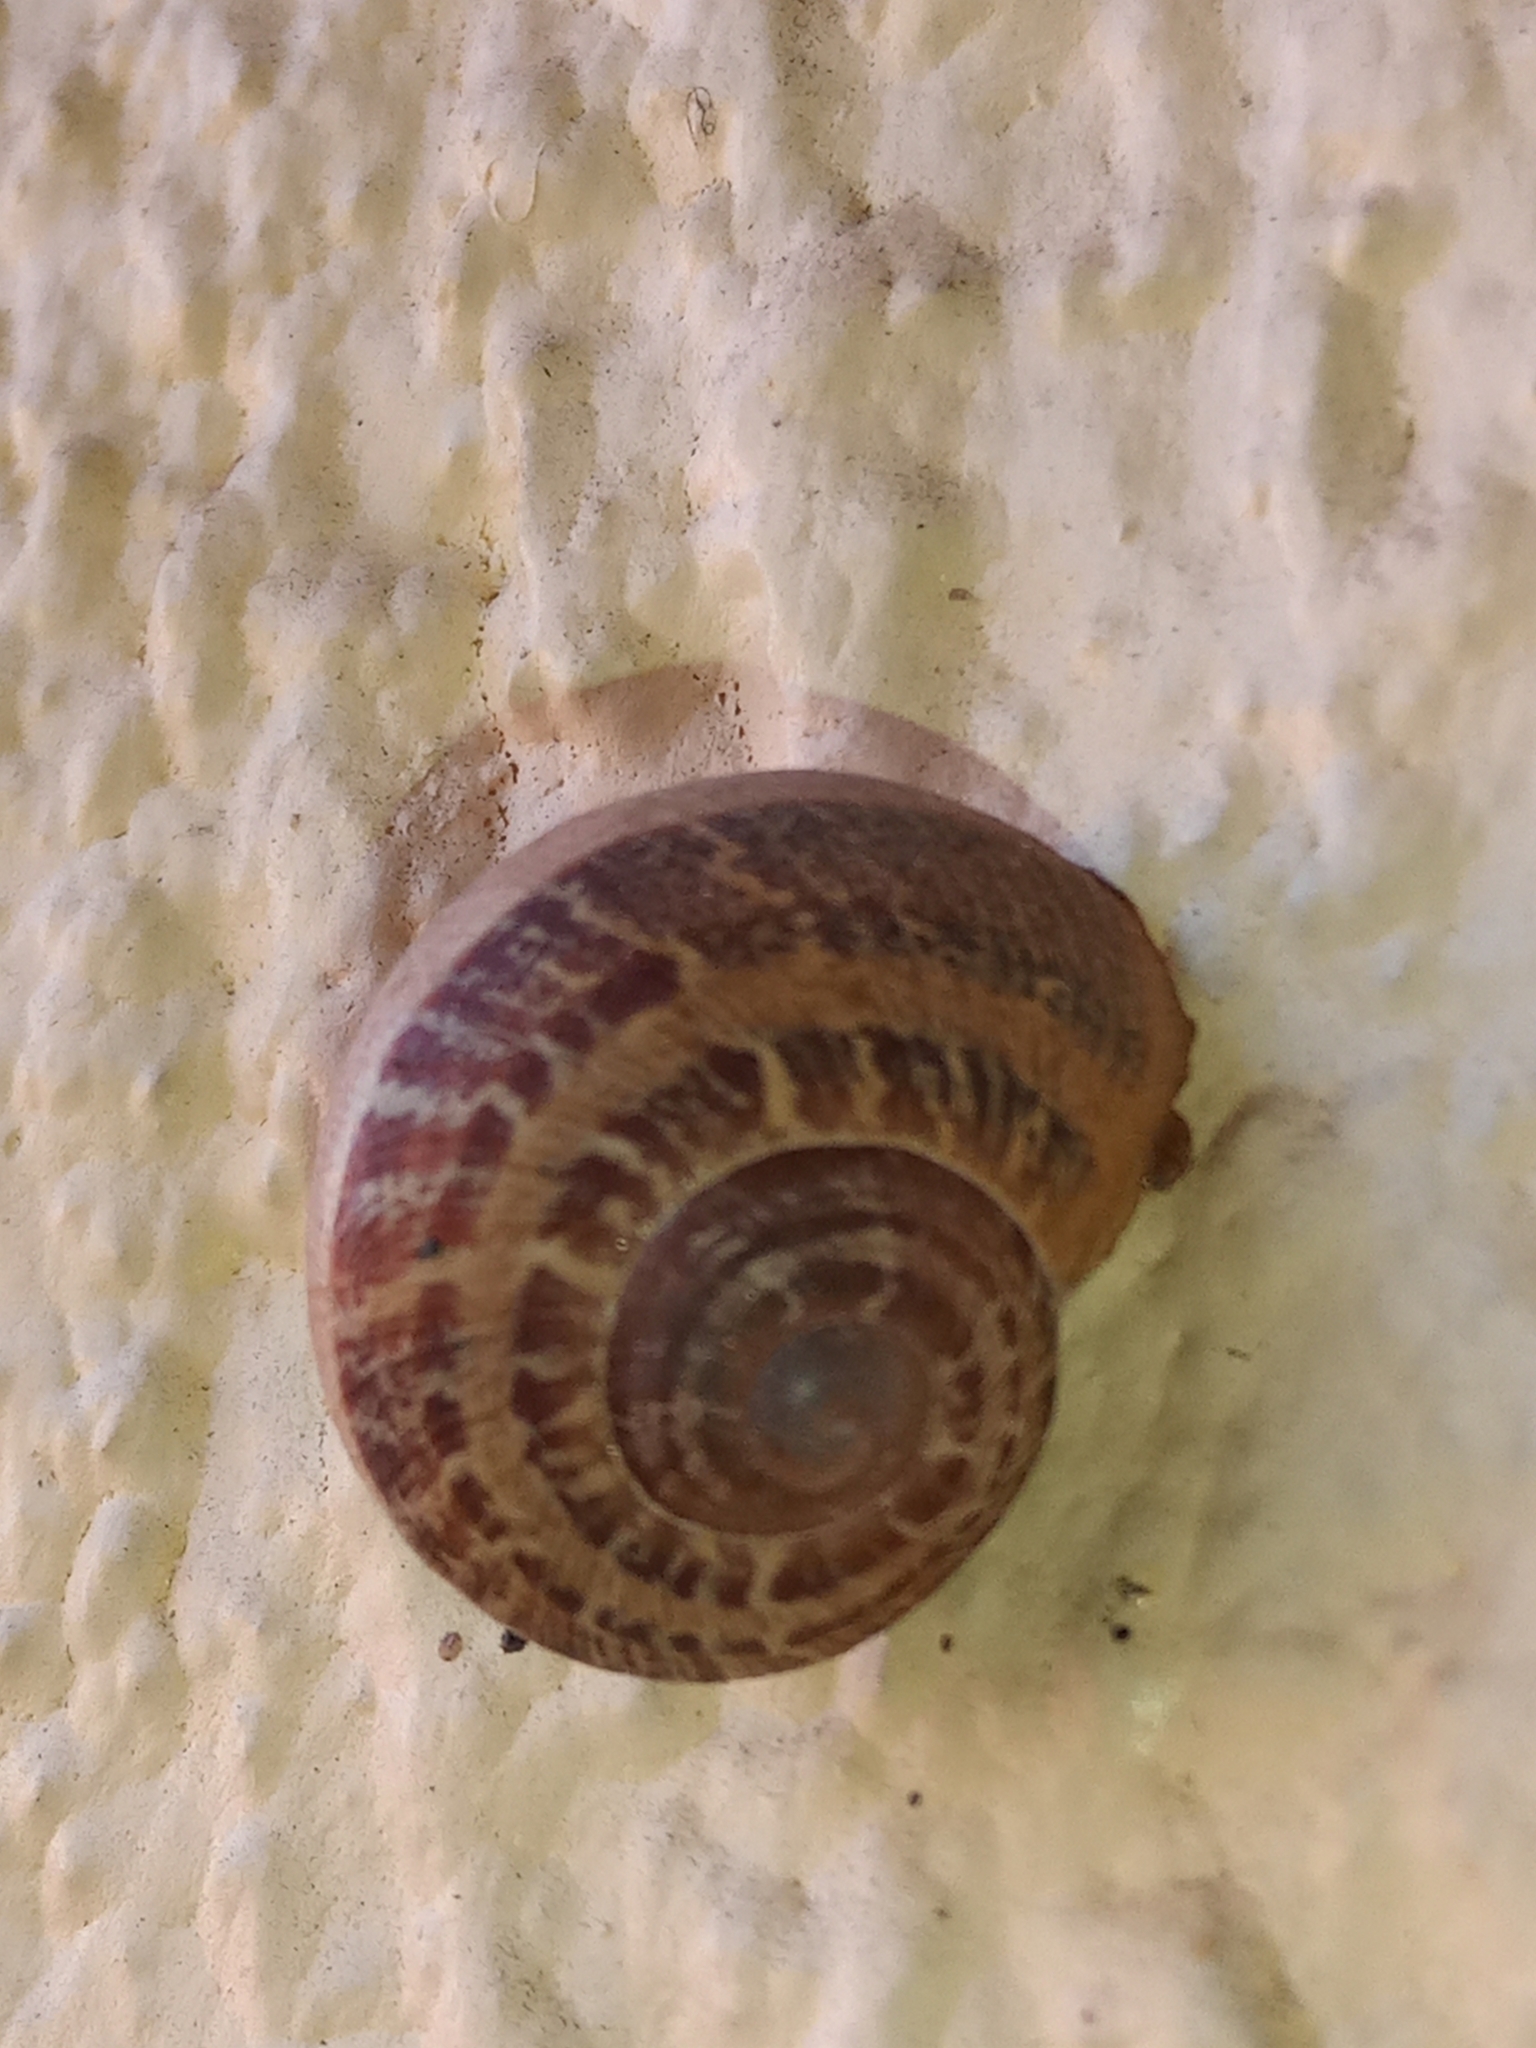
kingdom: Animalia
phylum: Mollusca
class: Gastropoda
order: Stylommatophora
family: Helicidae
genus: Cornu
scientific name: Cornu aspersum
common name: Brown garden snail
